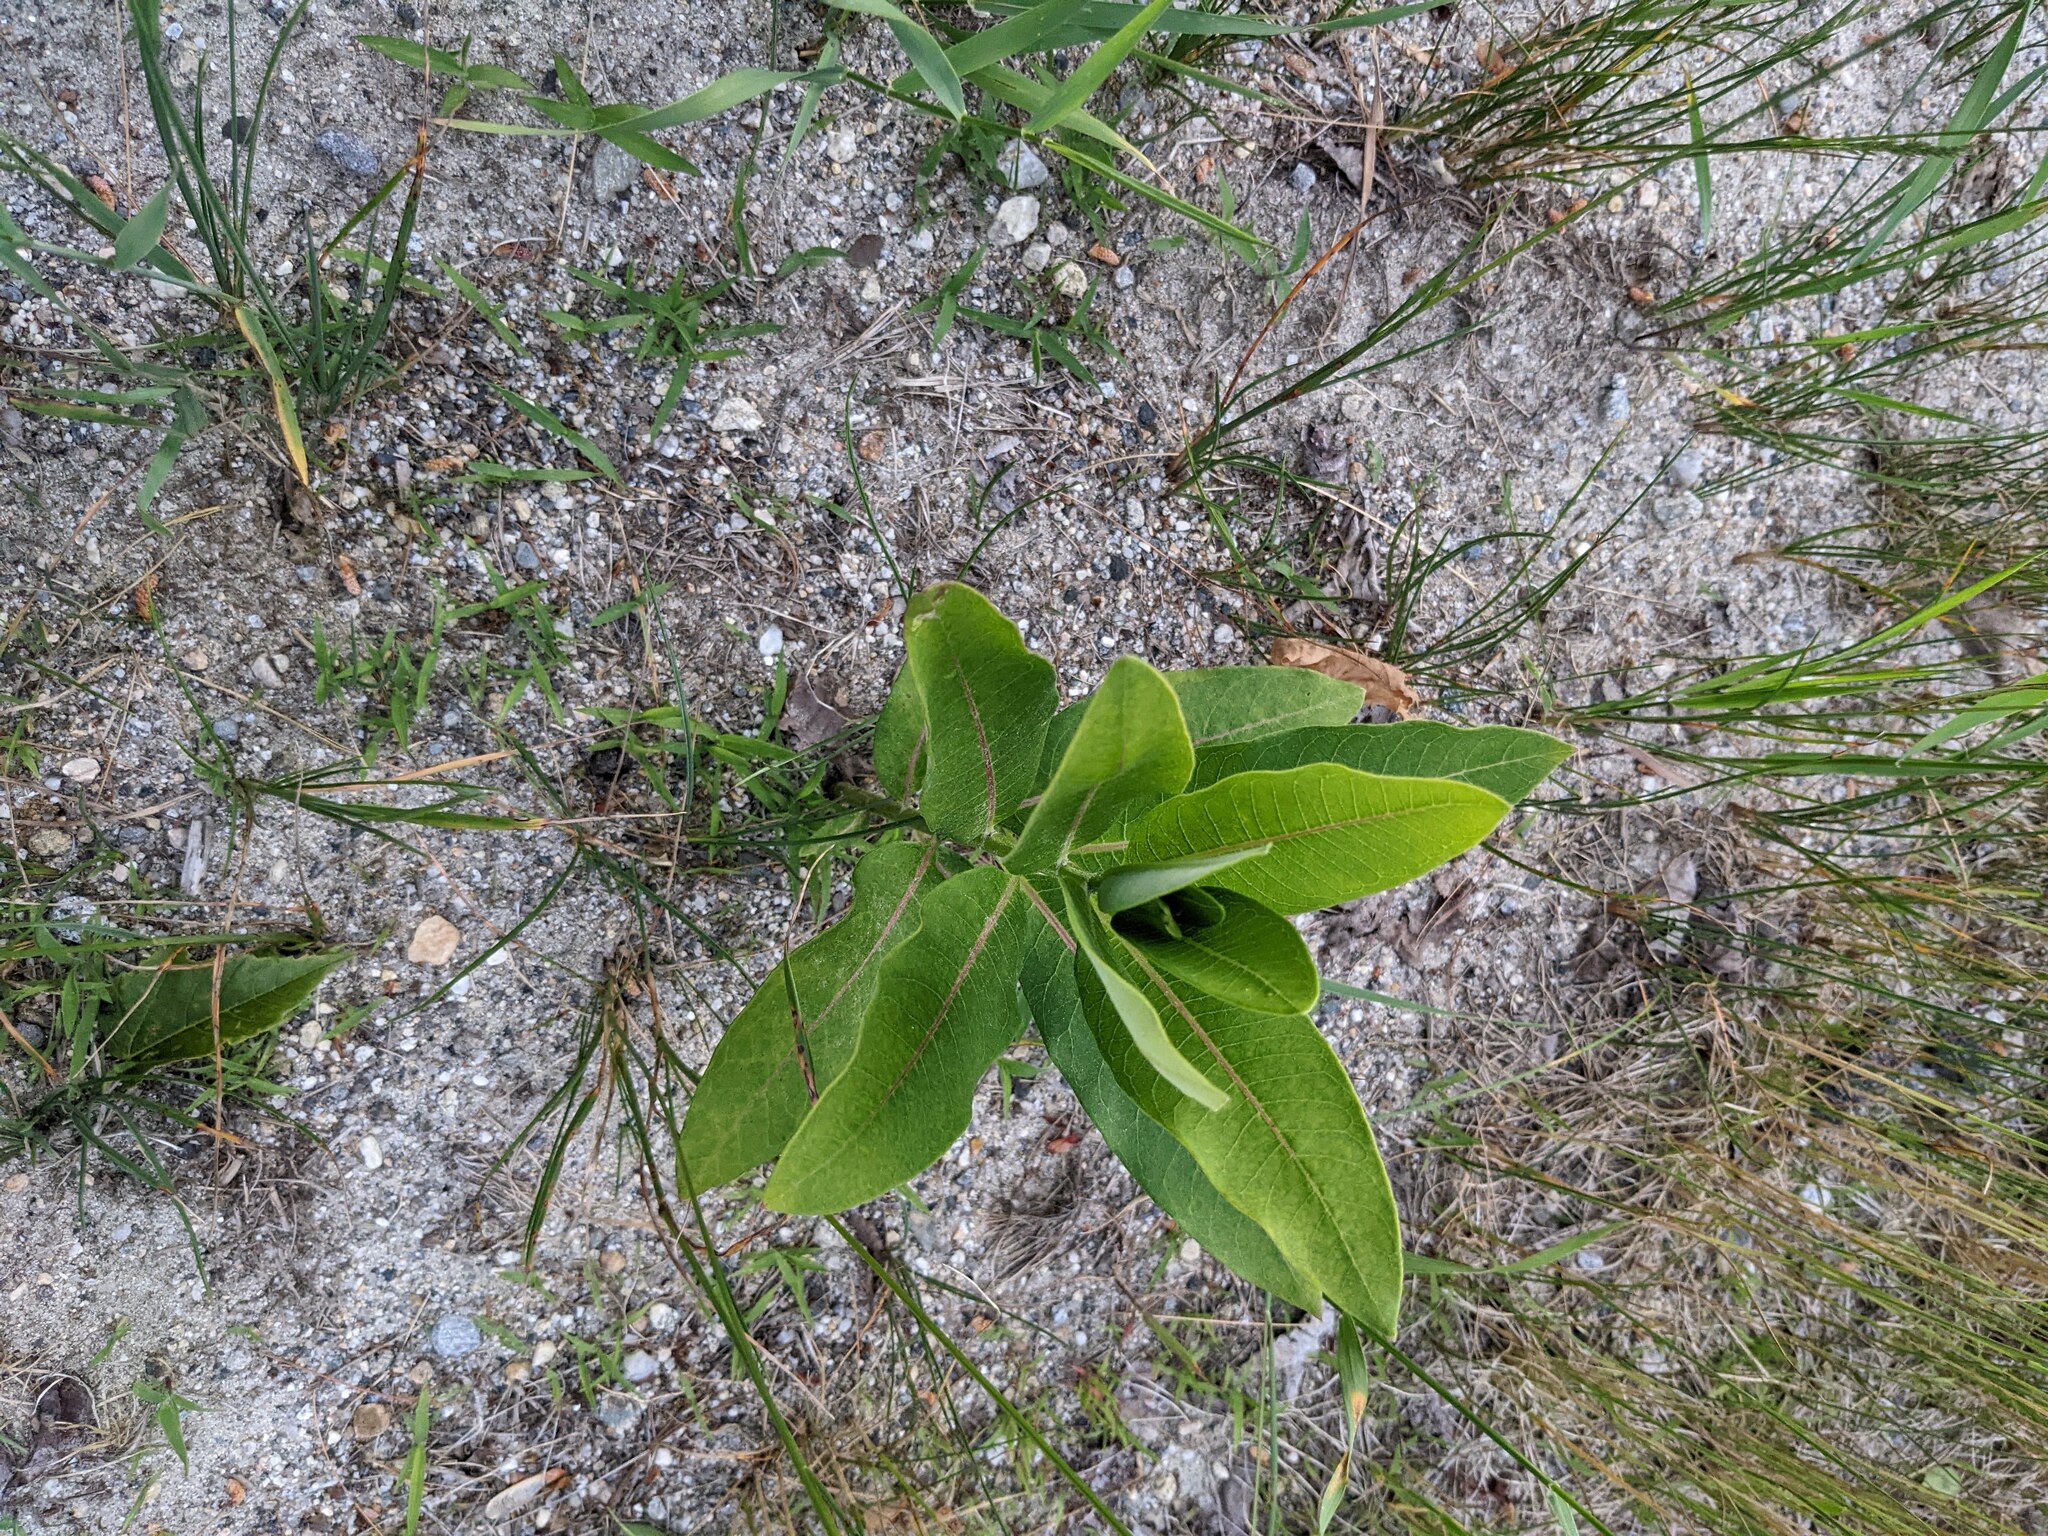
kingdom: Plantae
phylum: Tracheophyta
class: Magnoliopsida
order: Gentianales
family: Apocynaceae
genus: Asclepias
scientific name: Asclepias syriaca
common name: Common milkweed
